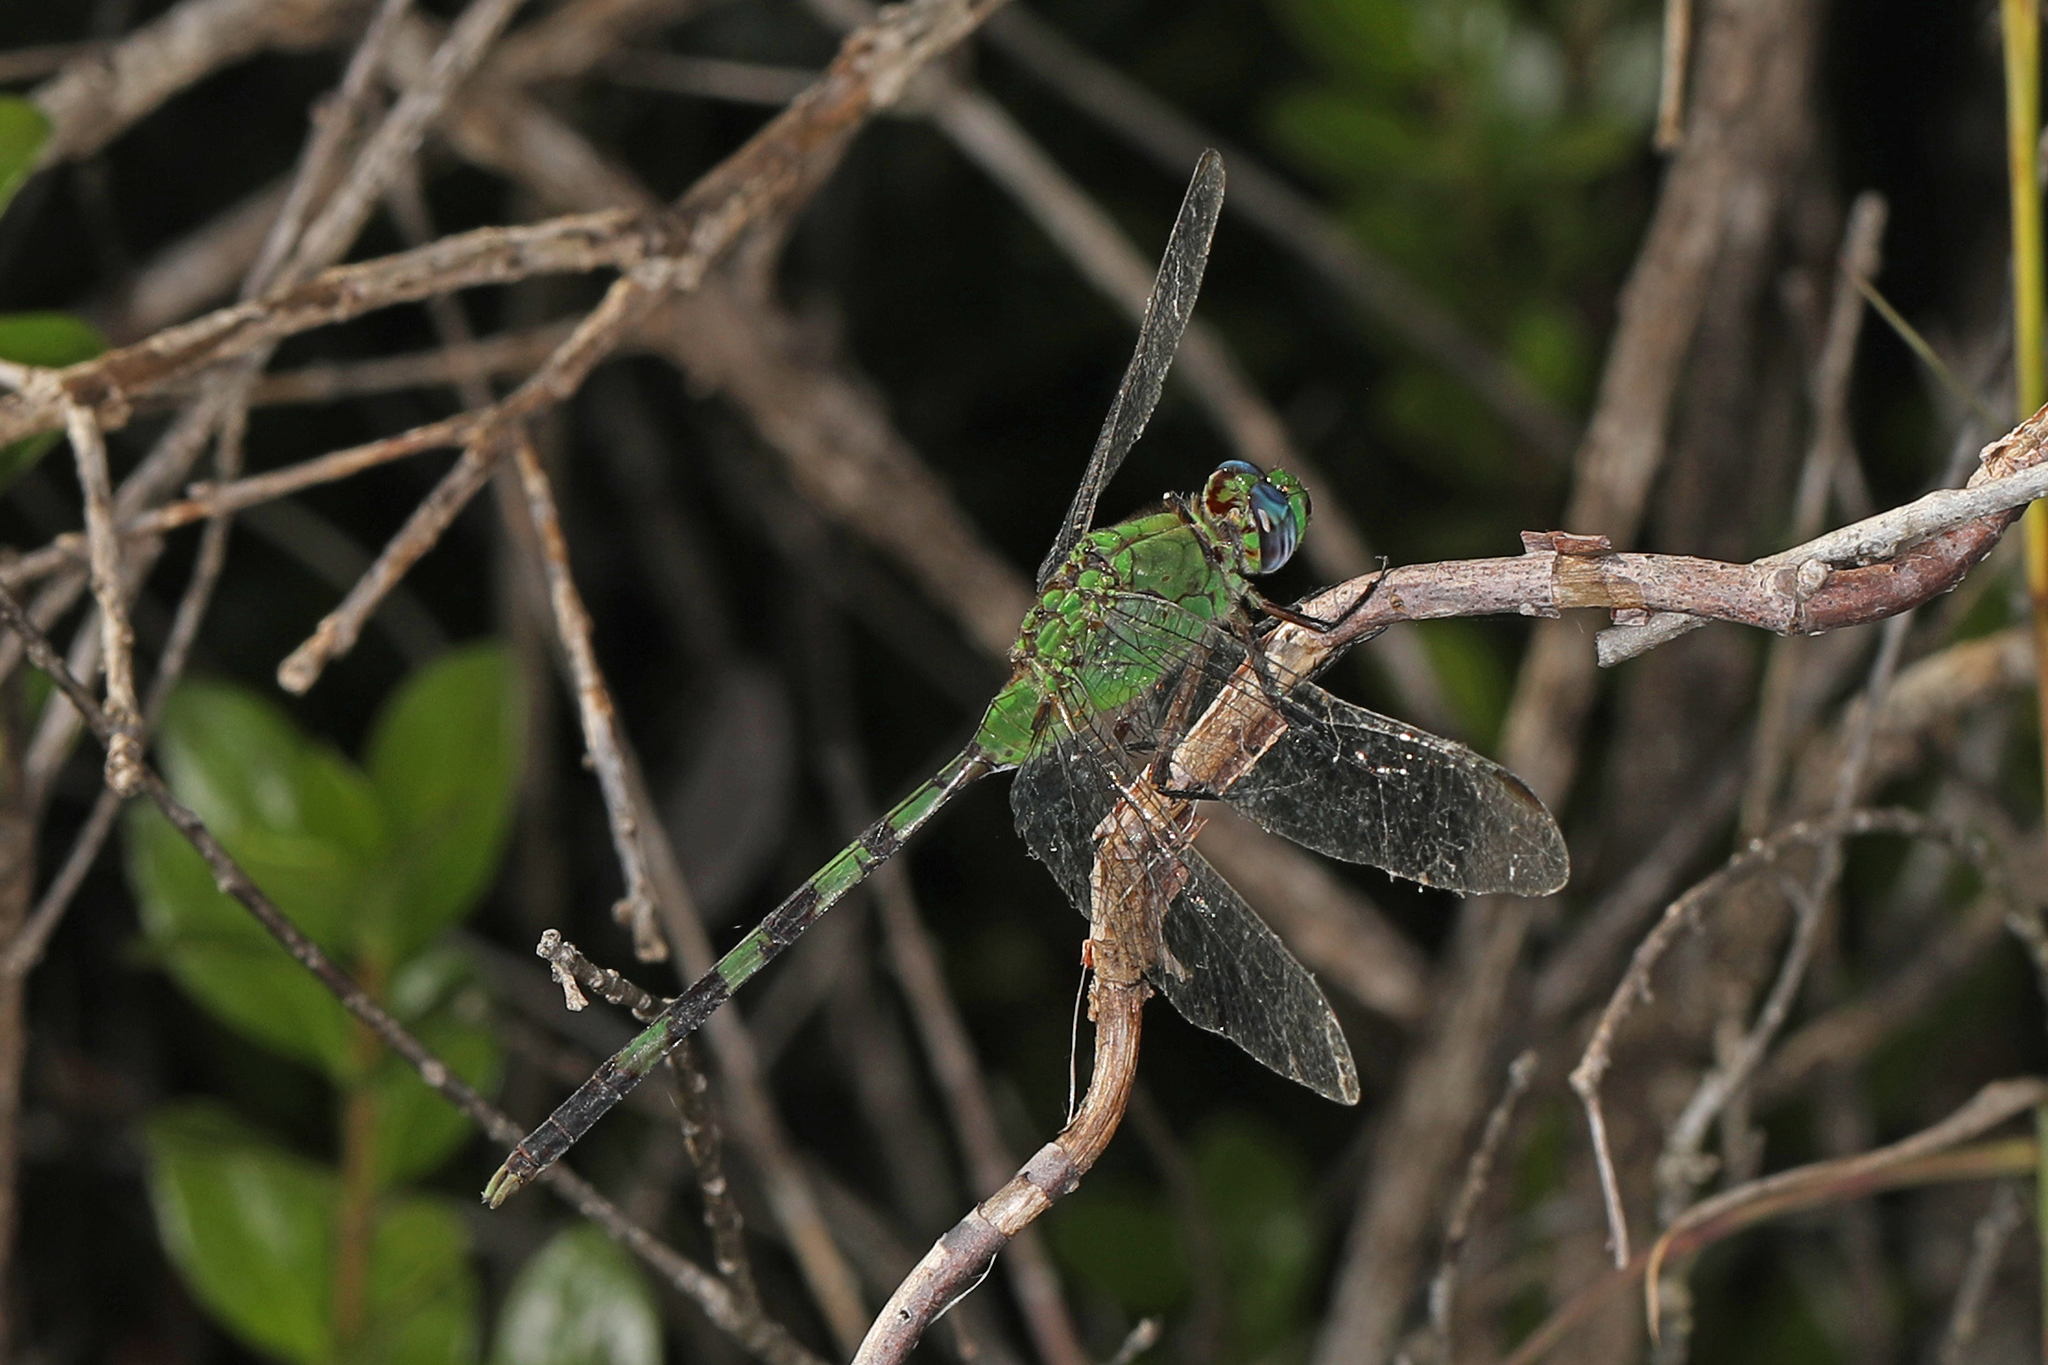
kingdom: Animalia
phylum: Arthropoda
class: Insecta
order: Odonata
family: Libellulidae
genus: Erythemis
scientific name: Erythemis vesiculosa
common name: Great pondhawk
